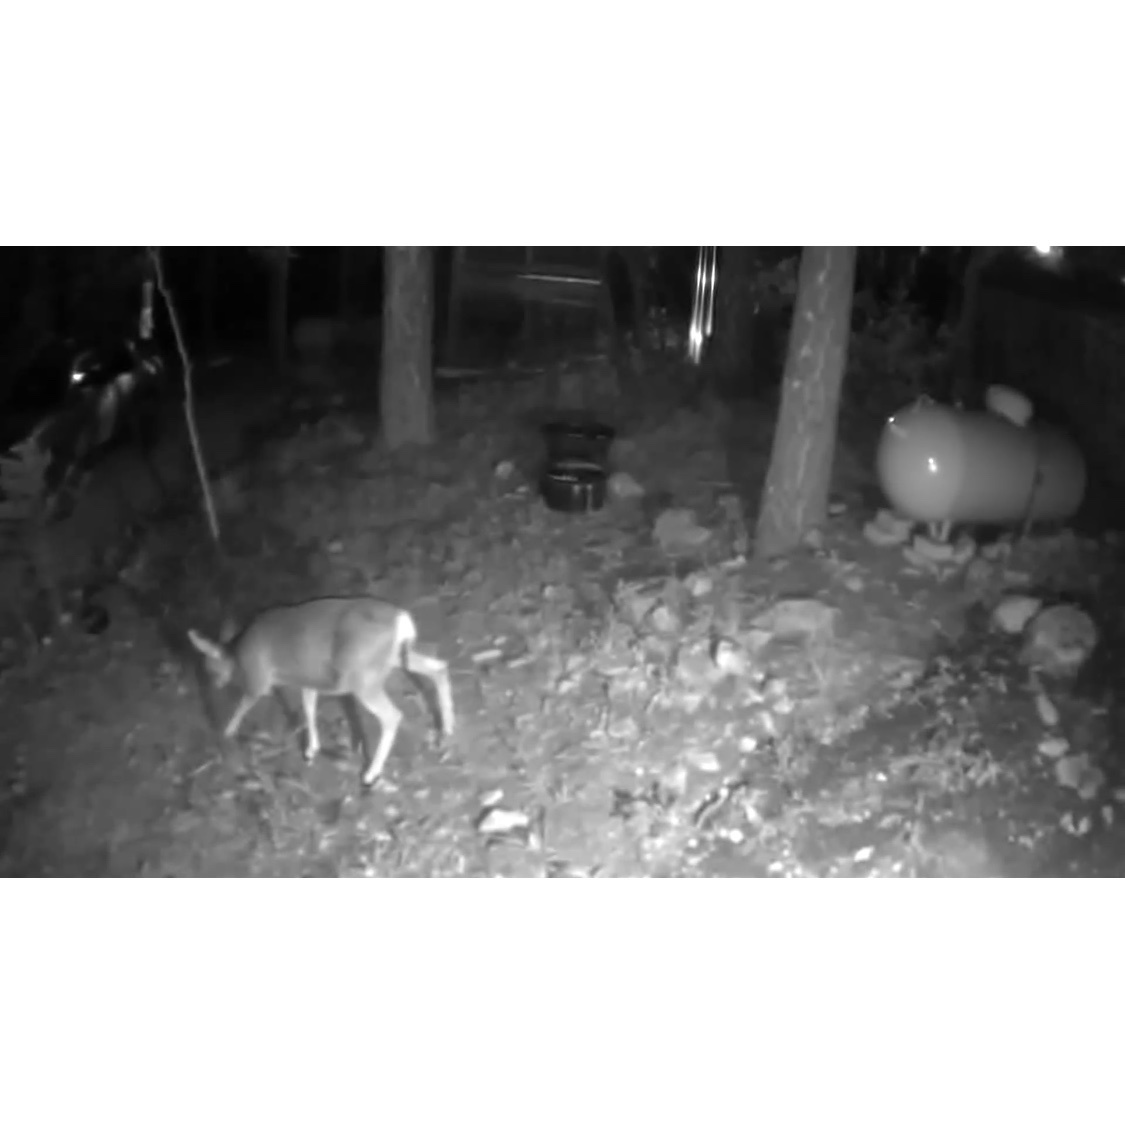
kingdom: Animalia
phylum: Chordata
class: Mammalia
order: Artiodactyla
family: Cervidae
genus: Odocoileus
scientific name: Odocoileus hemionus
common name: Mule deer
